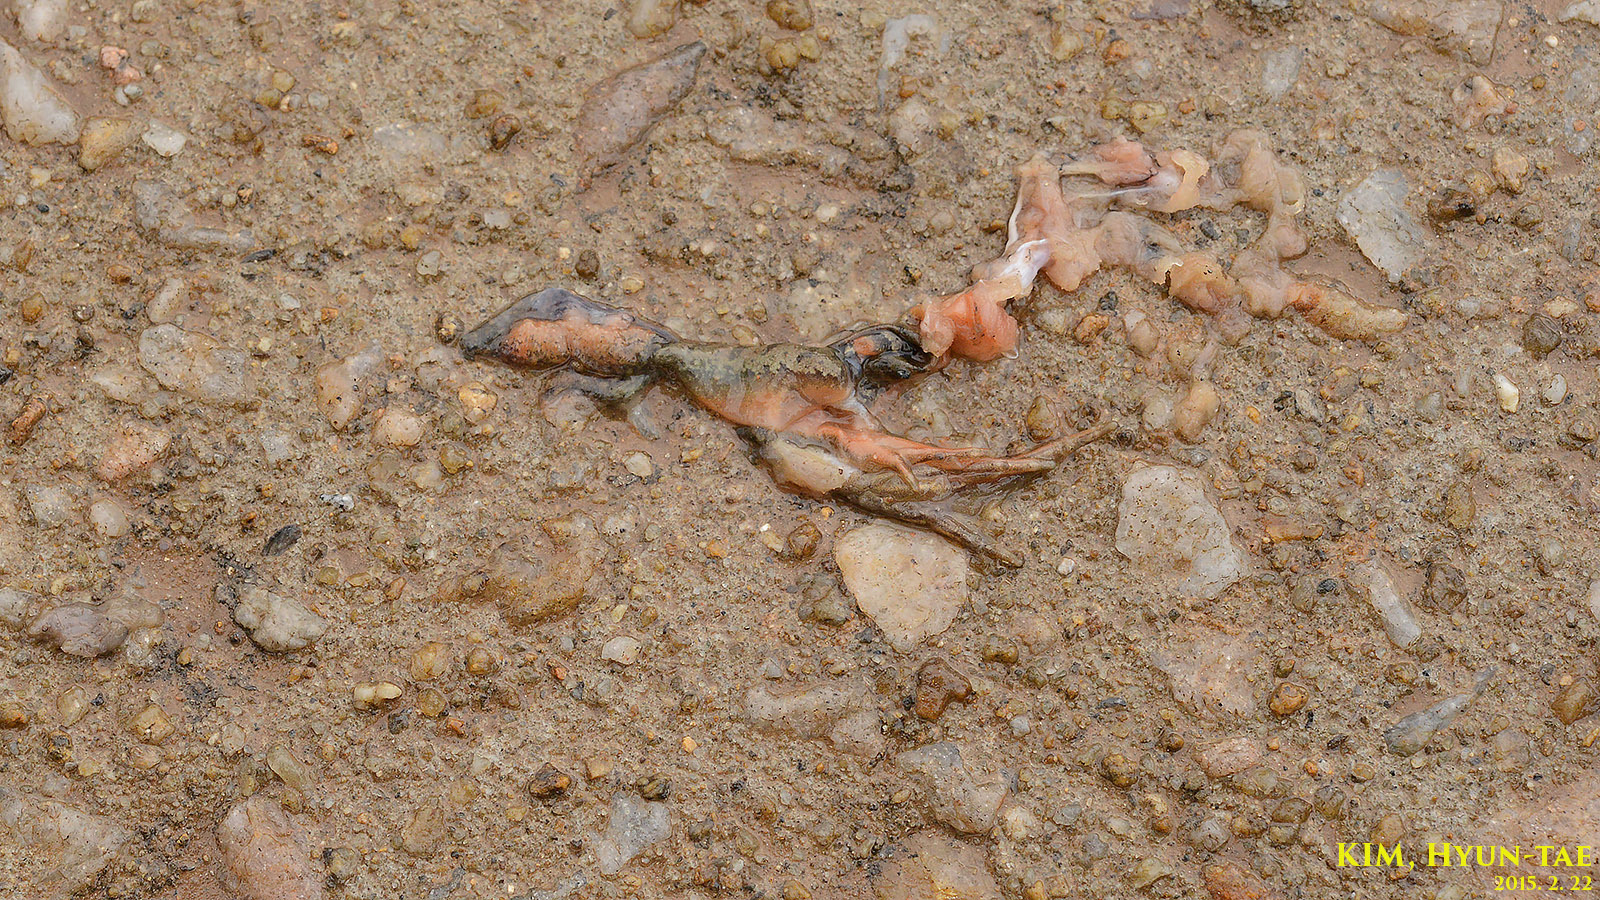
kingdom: Animalia
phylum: Chordata
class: Amphibia
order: Anura
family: Ranidae
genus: Rana
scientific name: Rana coreana
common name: Korean brown frog
